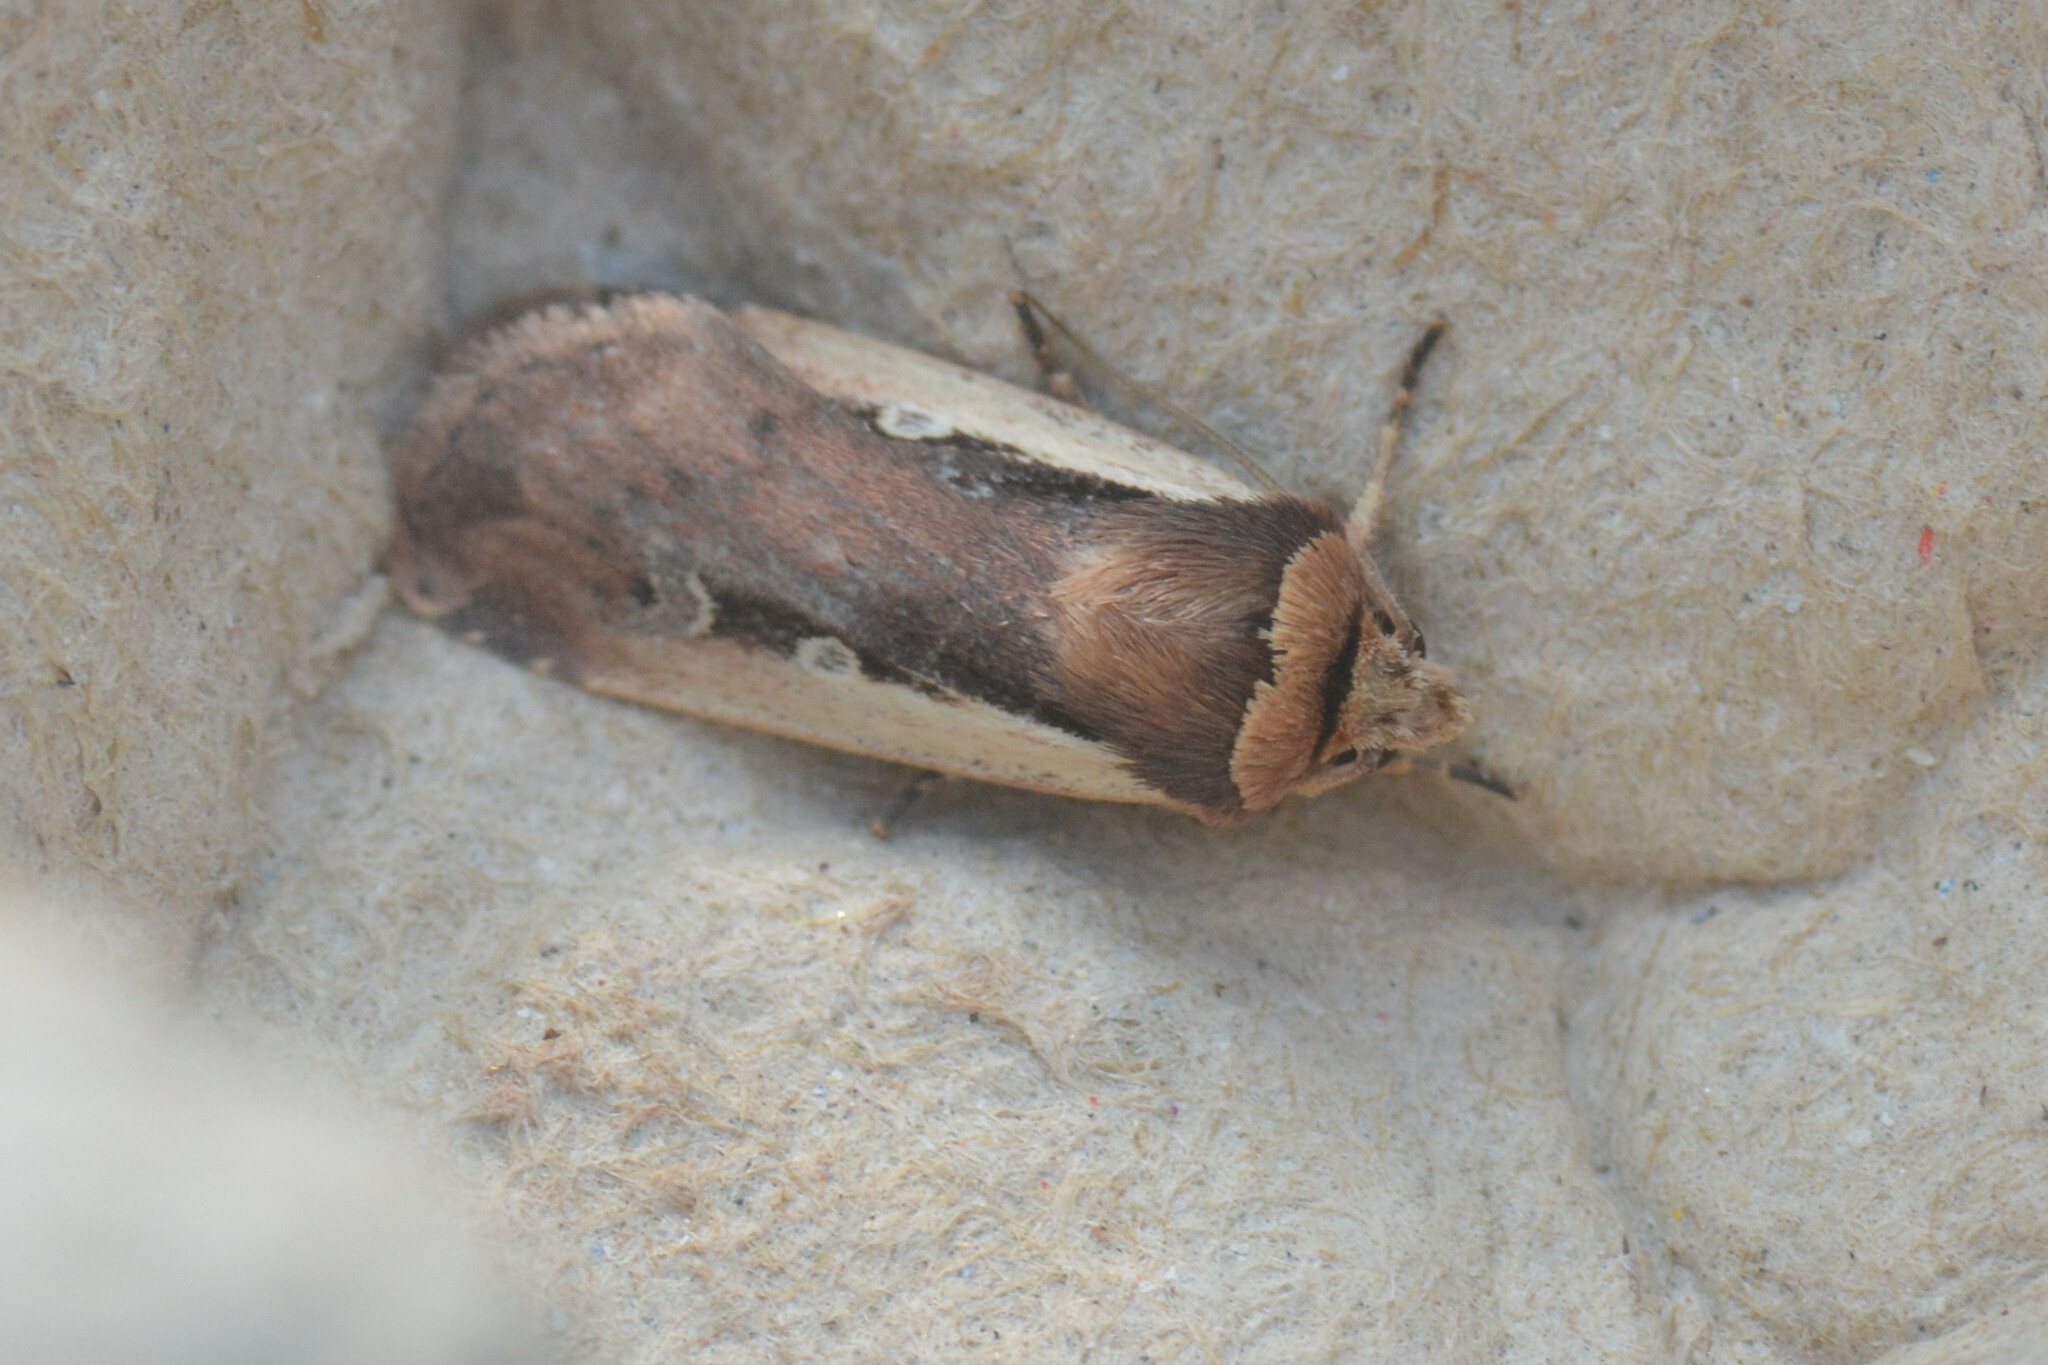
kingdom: Animalia
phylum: Arthropoda
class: Insecta
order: Lepidoptera
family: Noctuidae
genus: Ochropleura
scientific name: Ochropleura plecta
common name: Flame shoulder
